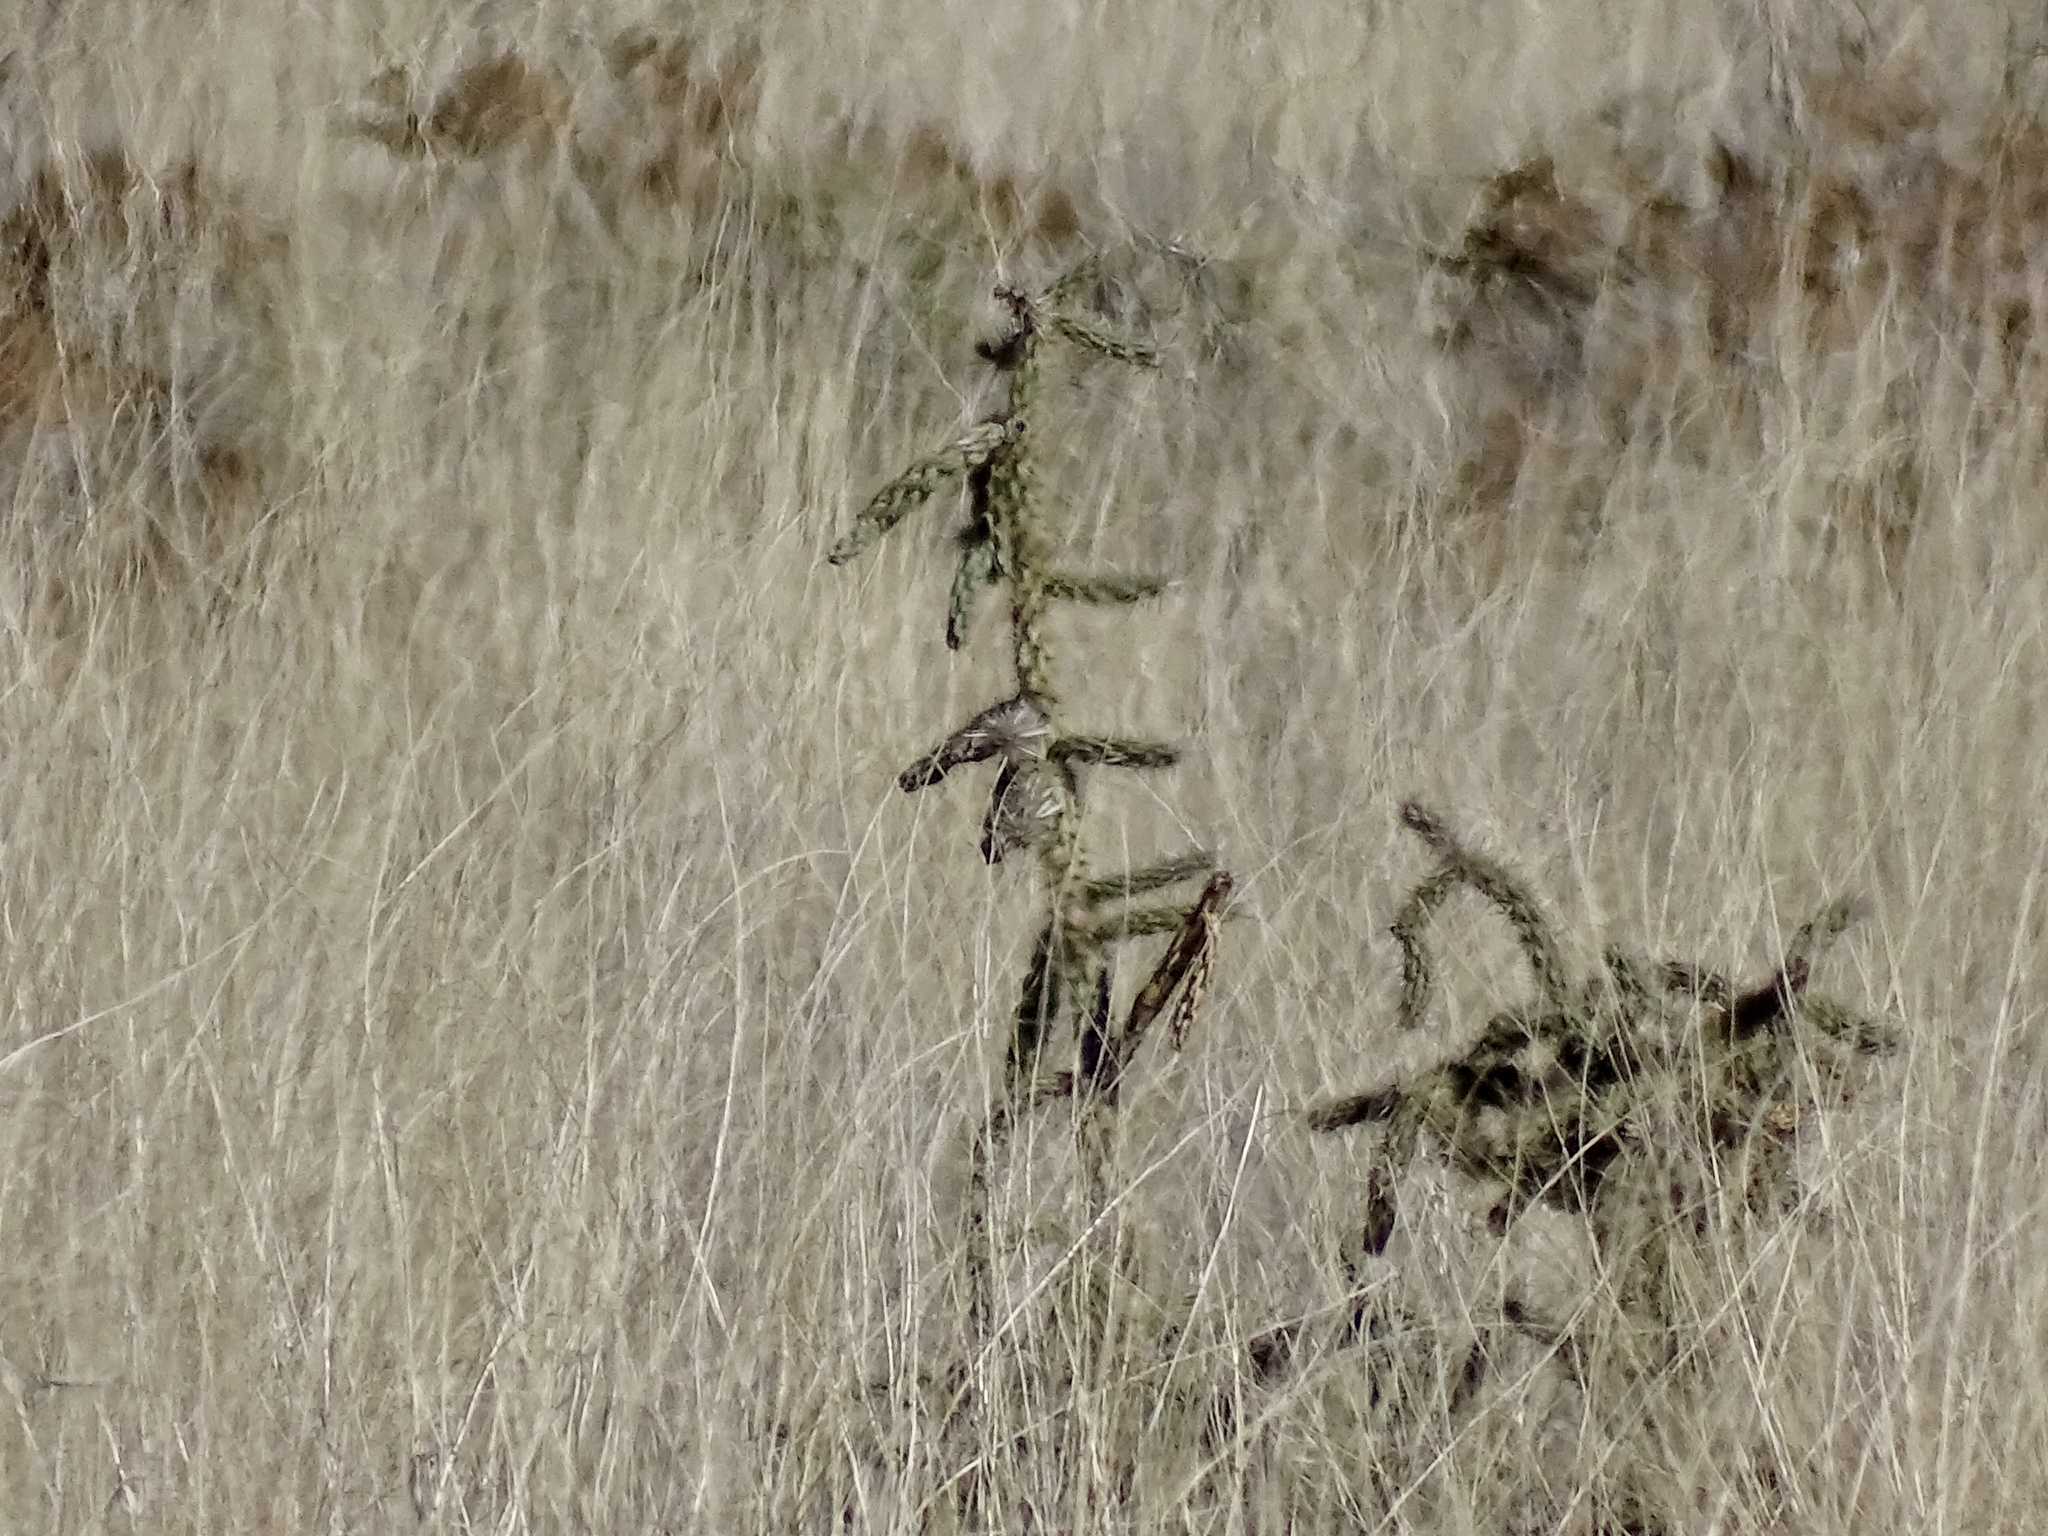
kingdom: Plantae
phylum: Tracheophyta
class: Magnoliopsida
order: Caryophyllales
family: Cactaceae
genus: Cylindropuntia
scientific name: Cylindropuntia imbricata
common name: Candelabrum cactus
